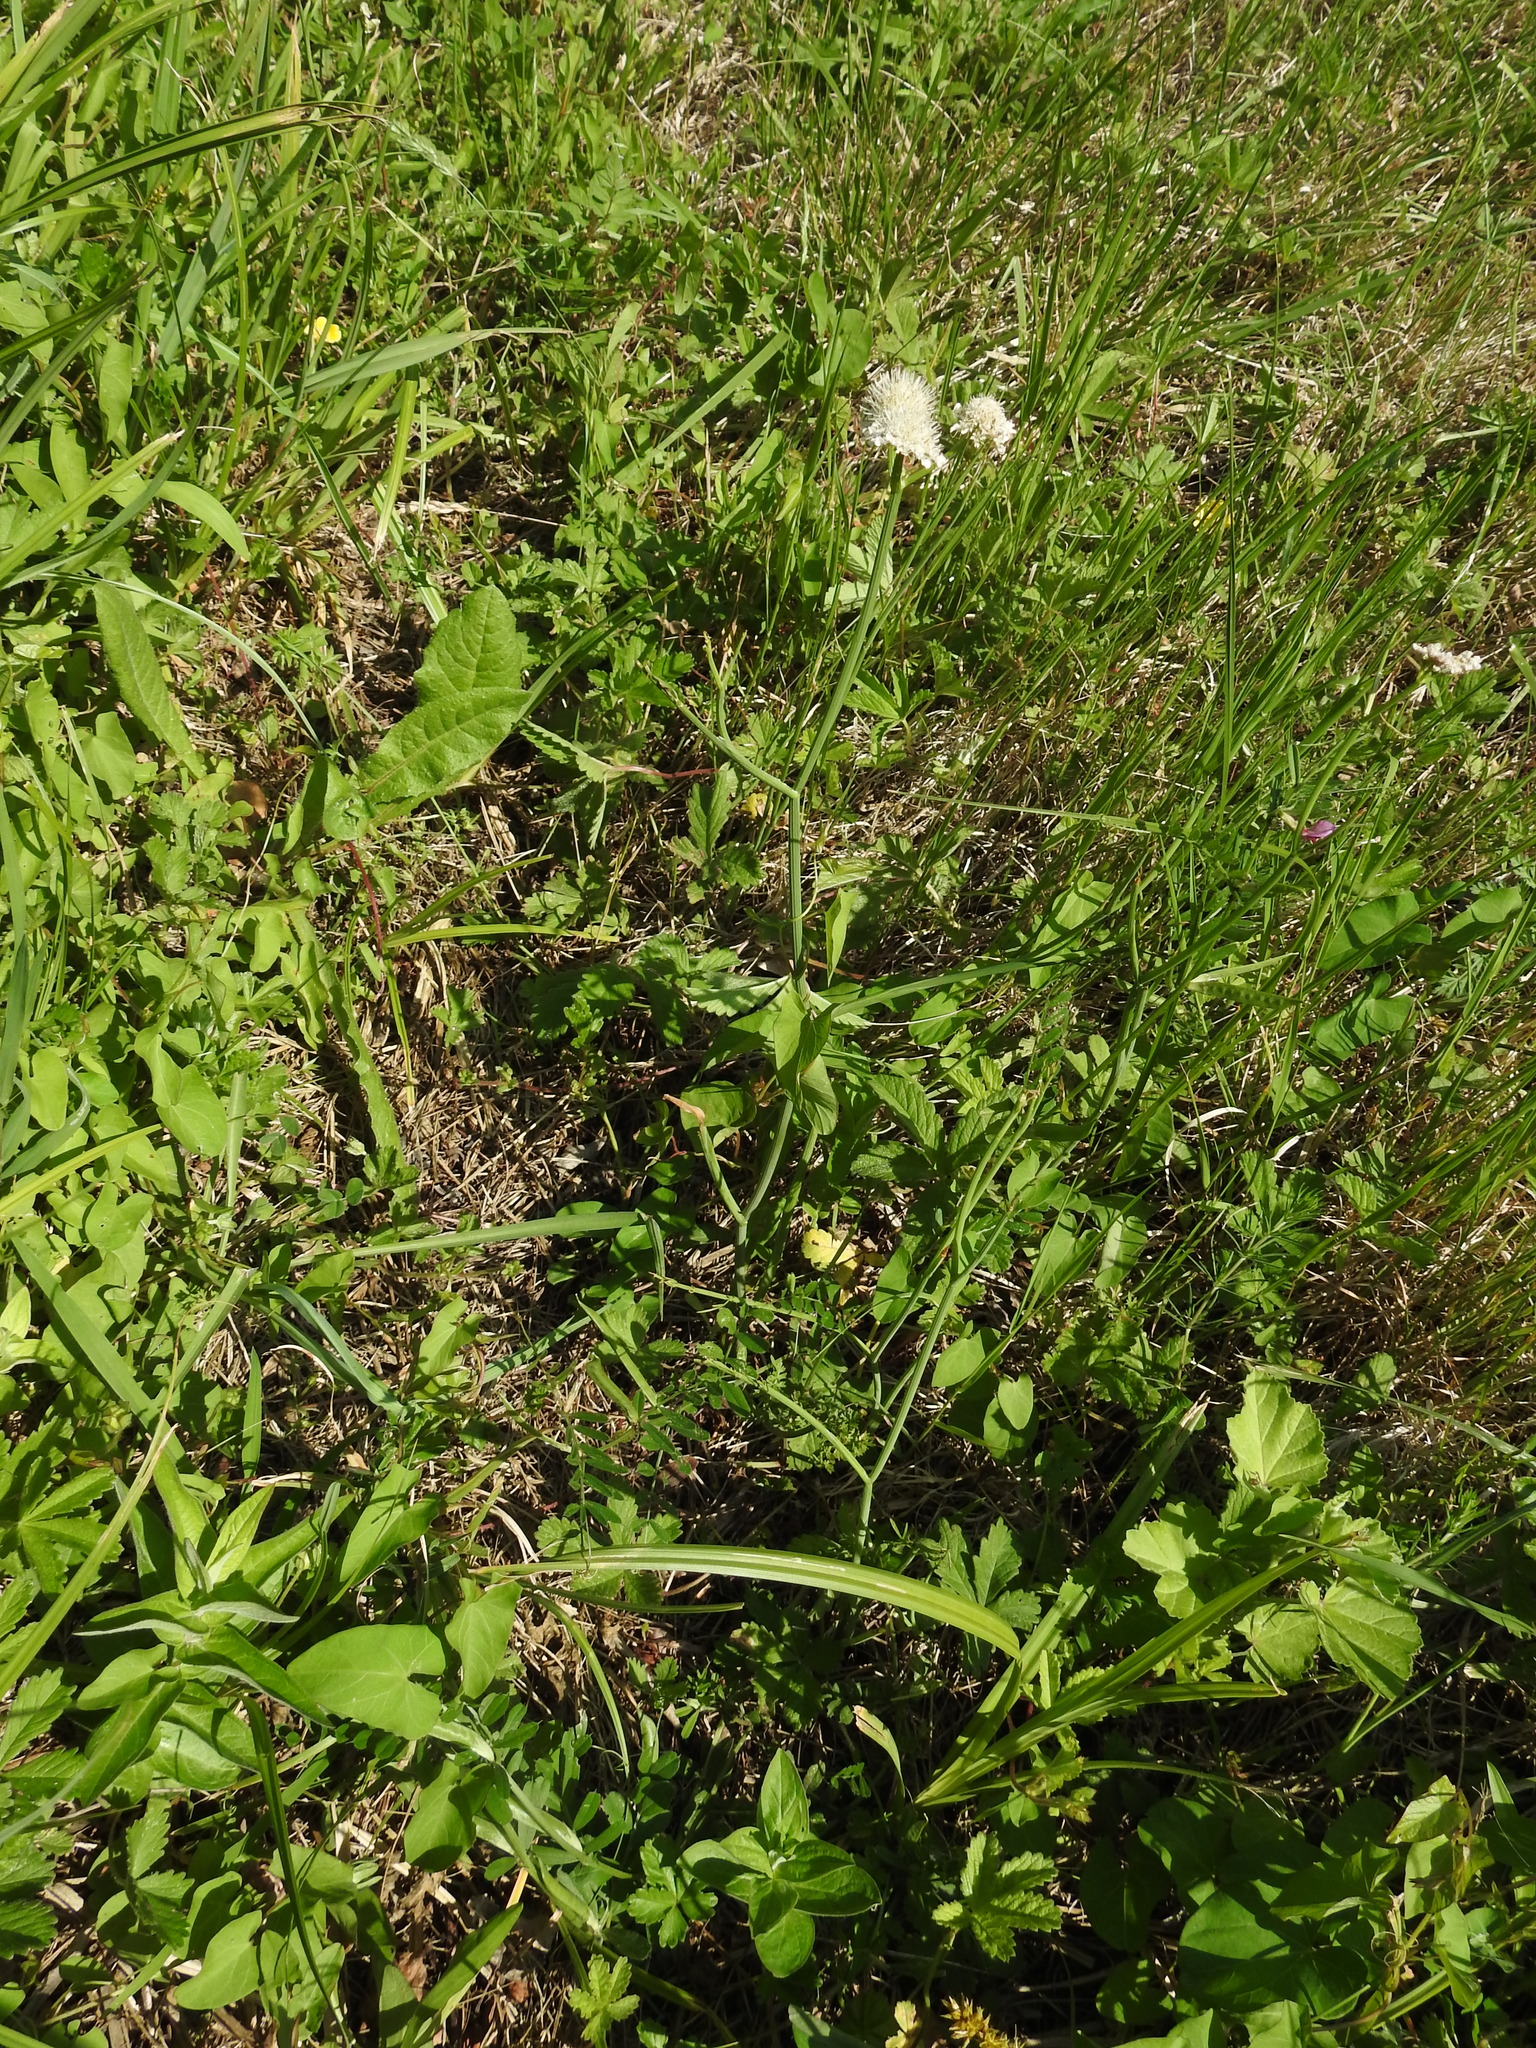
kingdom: Plantae
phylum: Tracheophyta
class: Magnoliopsida
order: Apiales
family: Apiaceae
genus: Oenanthe
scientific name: Oenanthe fistulosa
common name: Tubular water-dropwort
